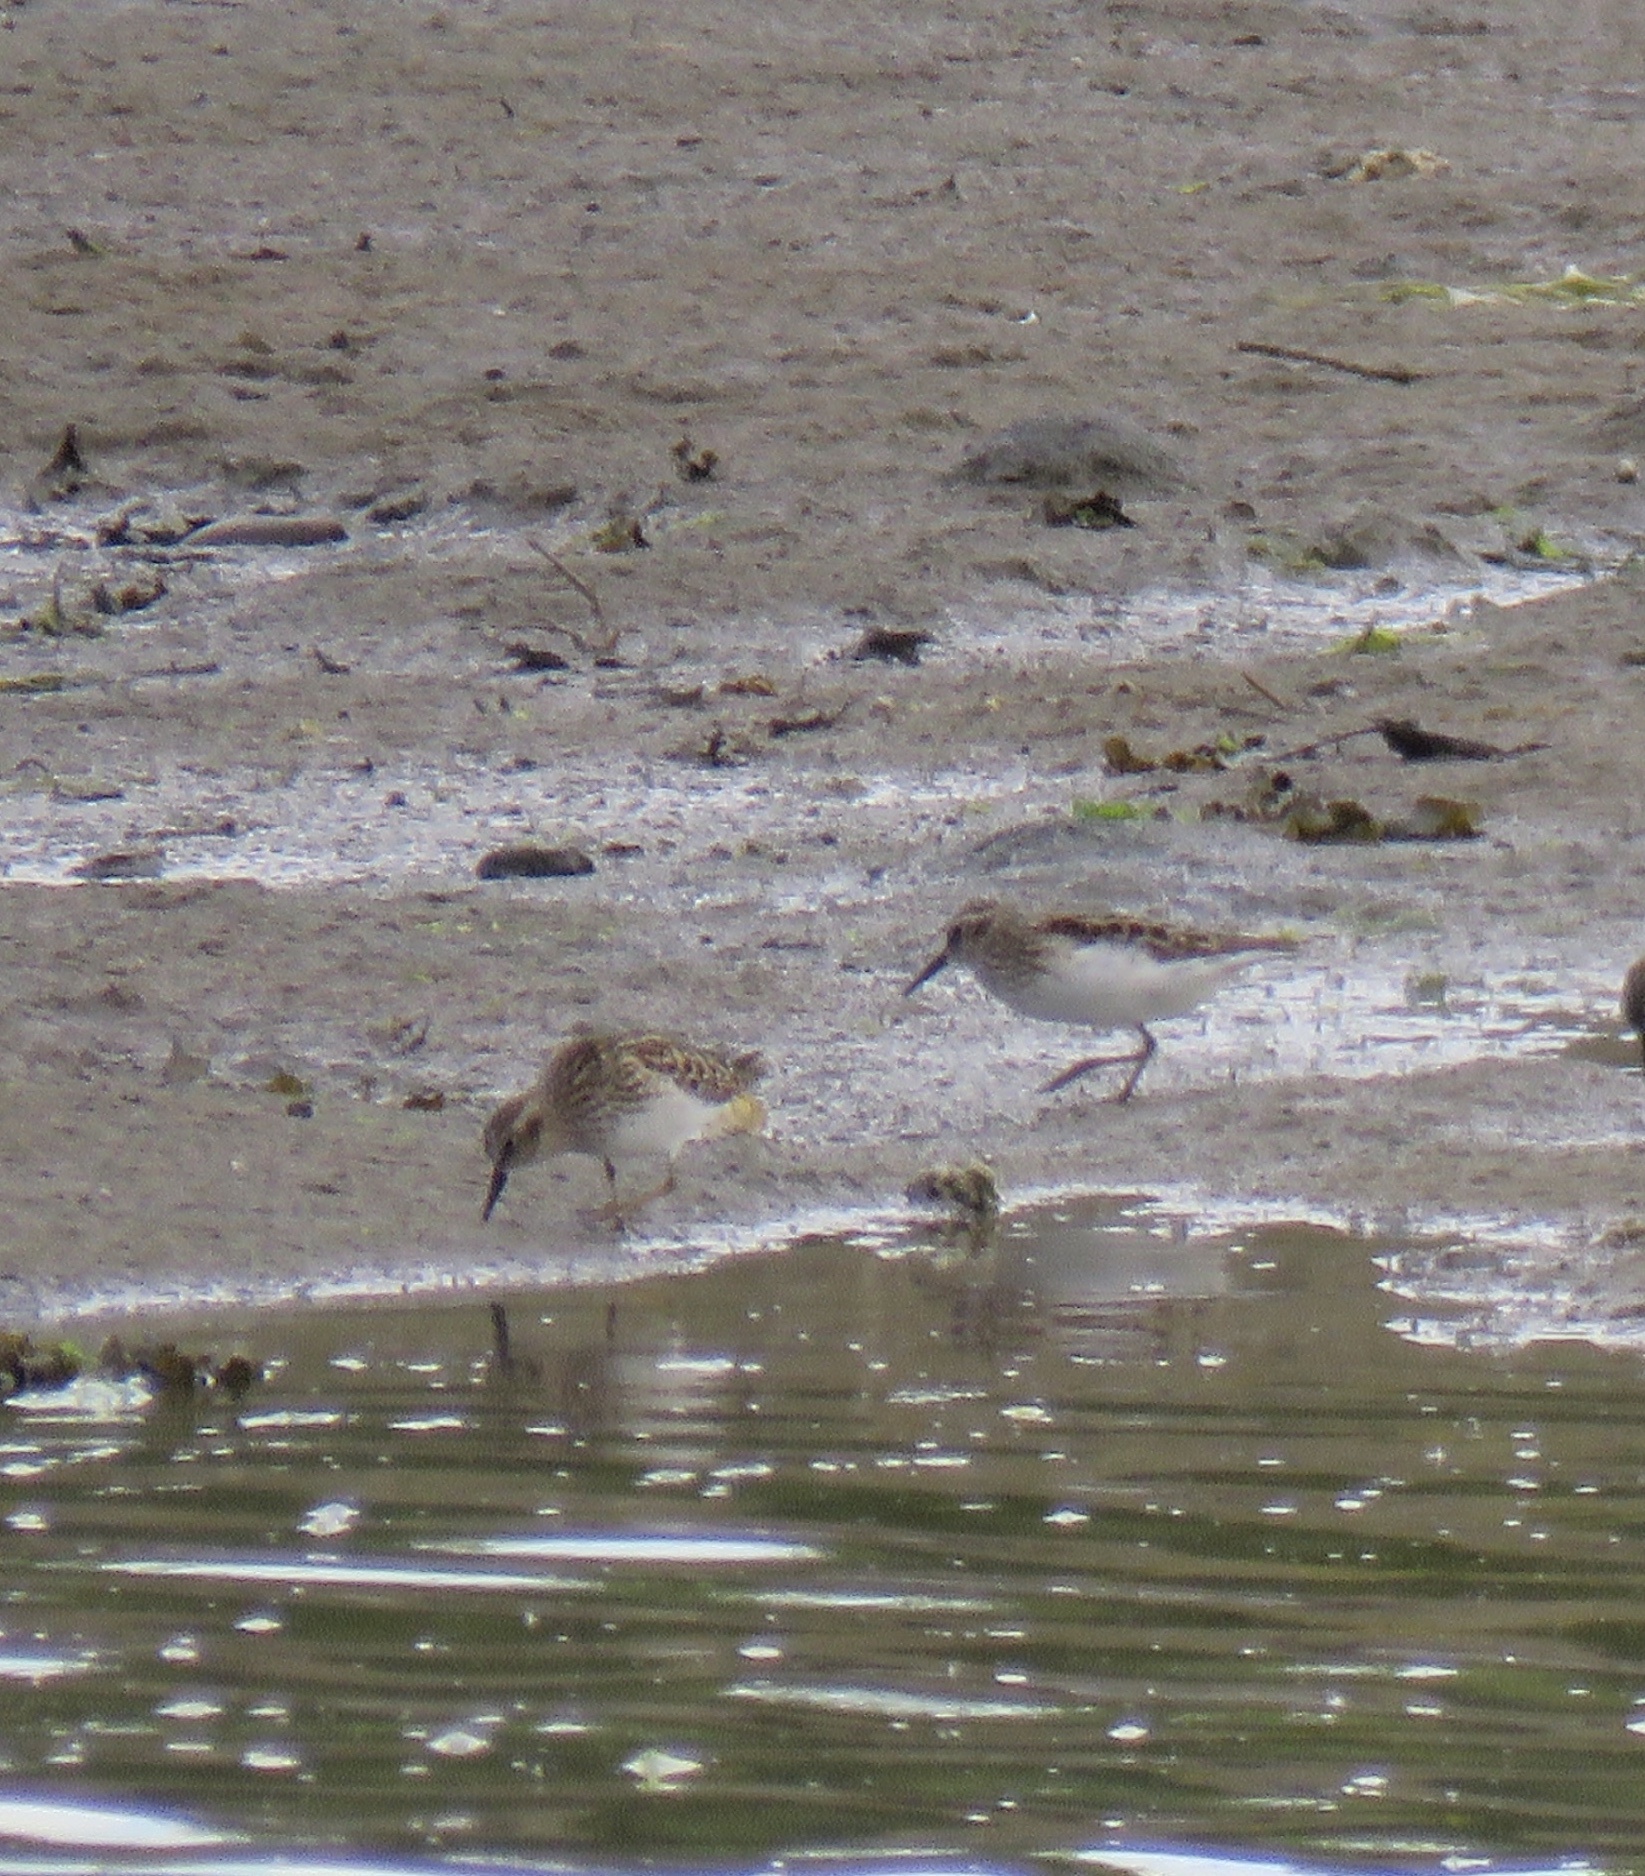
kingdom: Animalia
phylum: Chordata
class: Aves
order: Charadriiformes
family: Scolopacidae
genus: Calidris
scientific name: Calidris minutilla
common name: Least sandpiper
